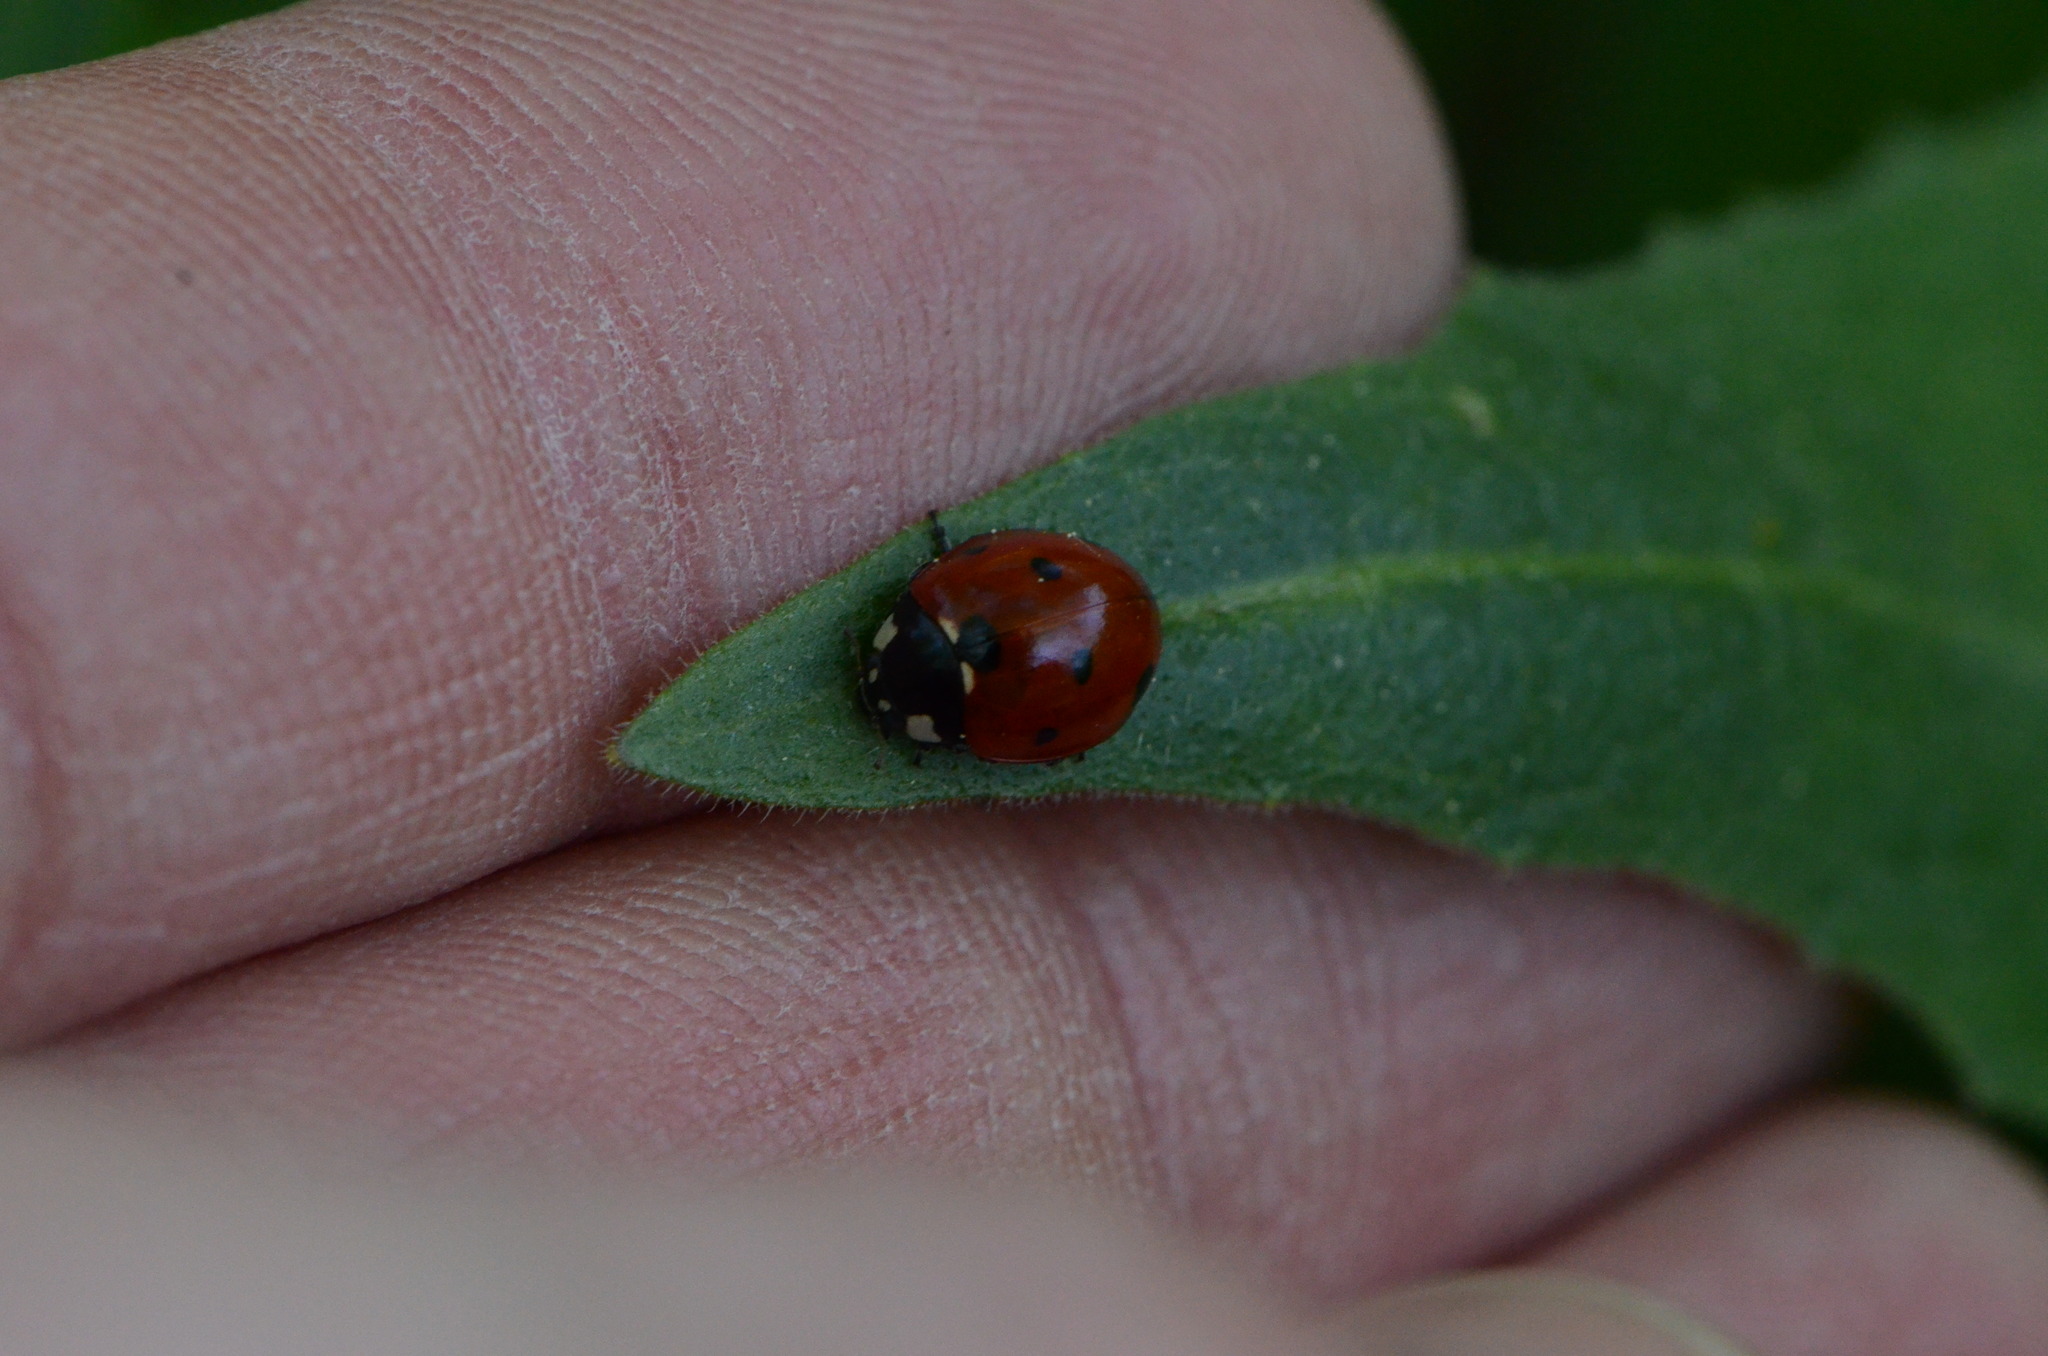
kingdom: Animalia
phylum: Arthropoda
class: Insecta
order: Coleoptera
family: Coccinellidae
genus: Coccinella
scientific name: Coccinella septempunctata
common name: Sevenspotted lady beetle
